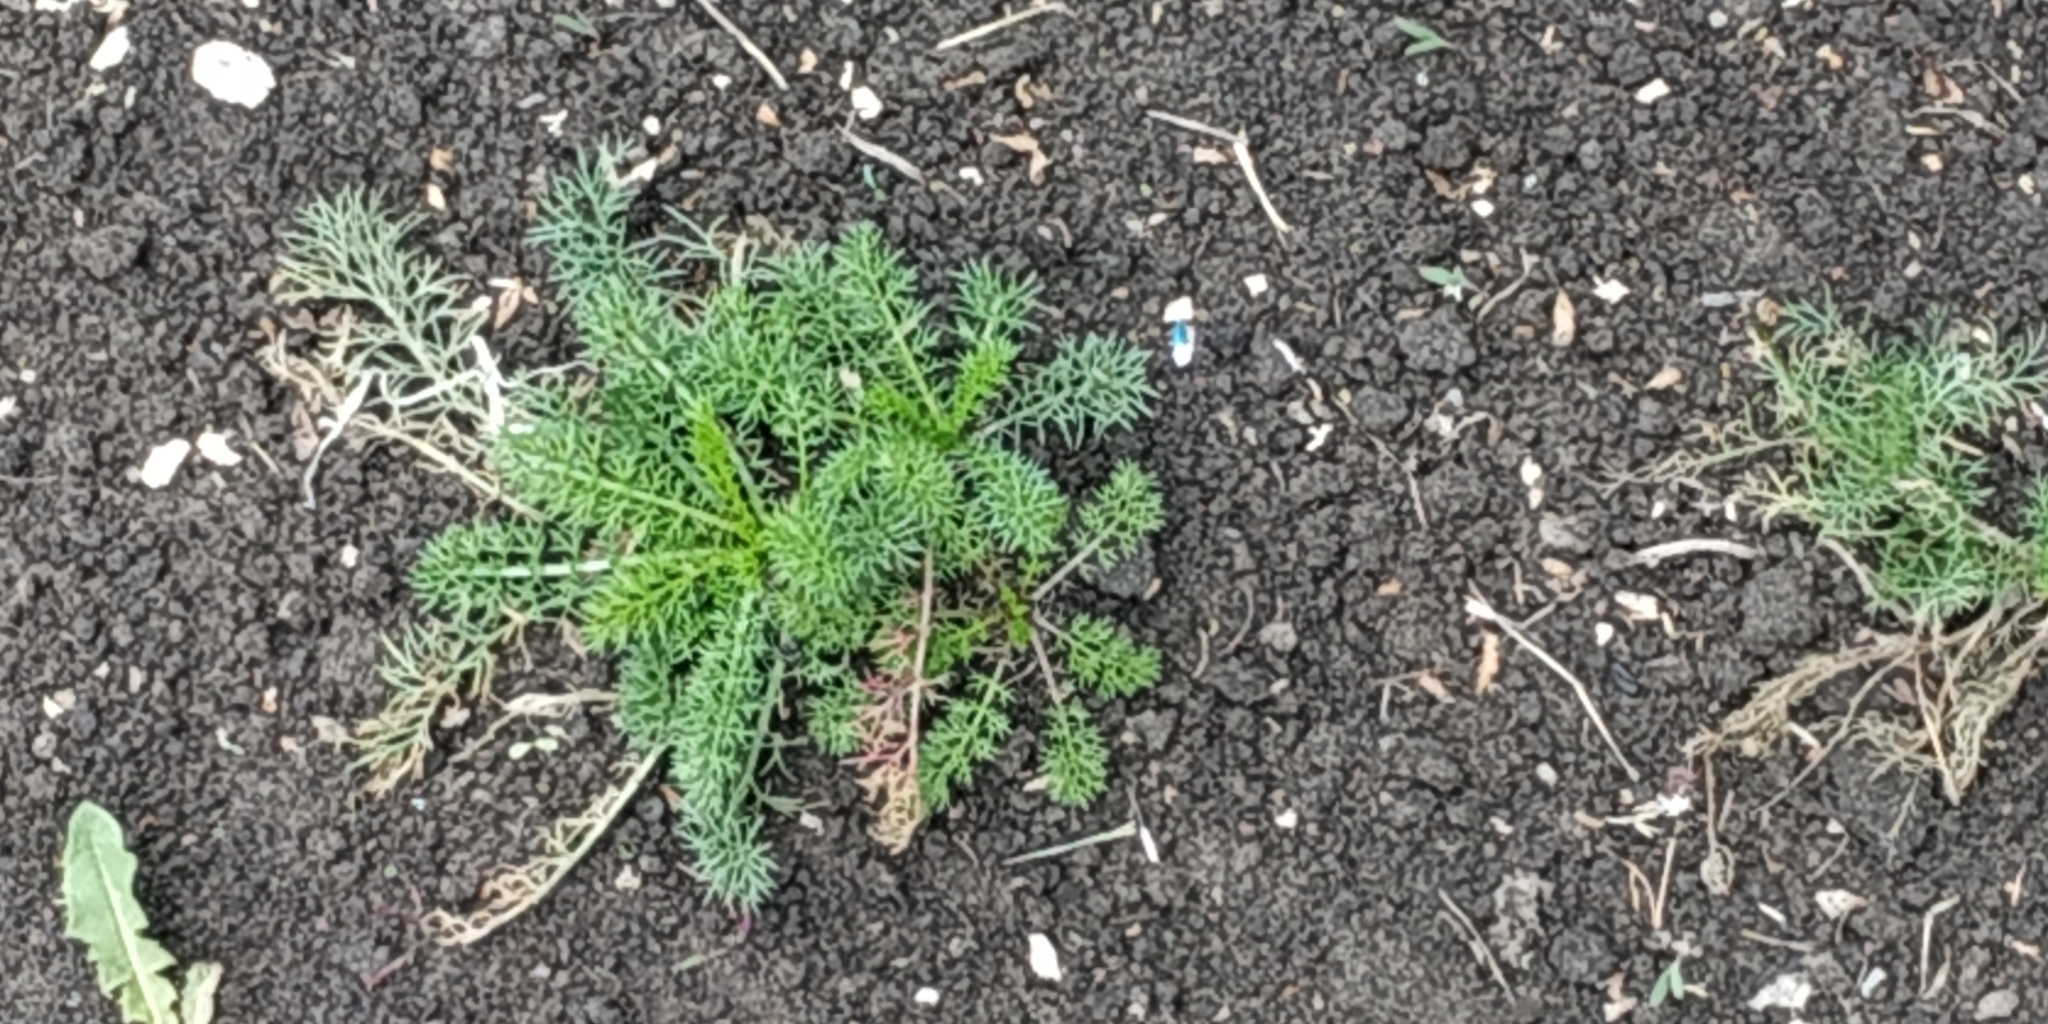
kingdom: Plantae
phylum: Tracheophyta
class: Magnoliopsida
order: Asterales
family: Asteraceae
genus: Tripleurospermum
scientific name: Tripleurospermum inodorum
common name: Scentless mayweed
